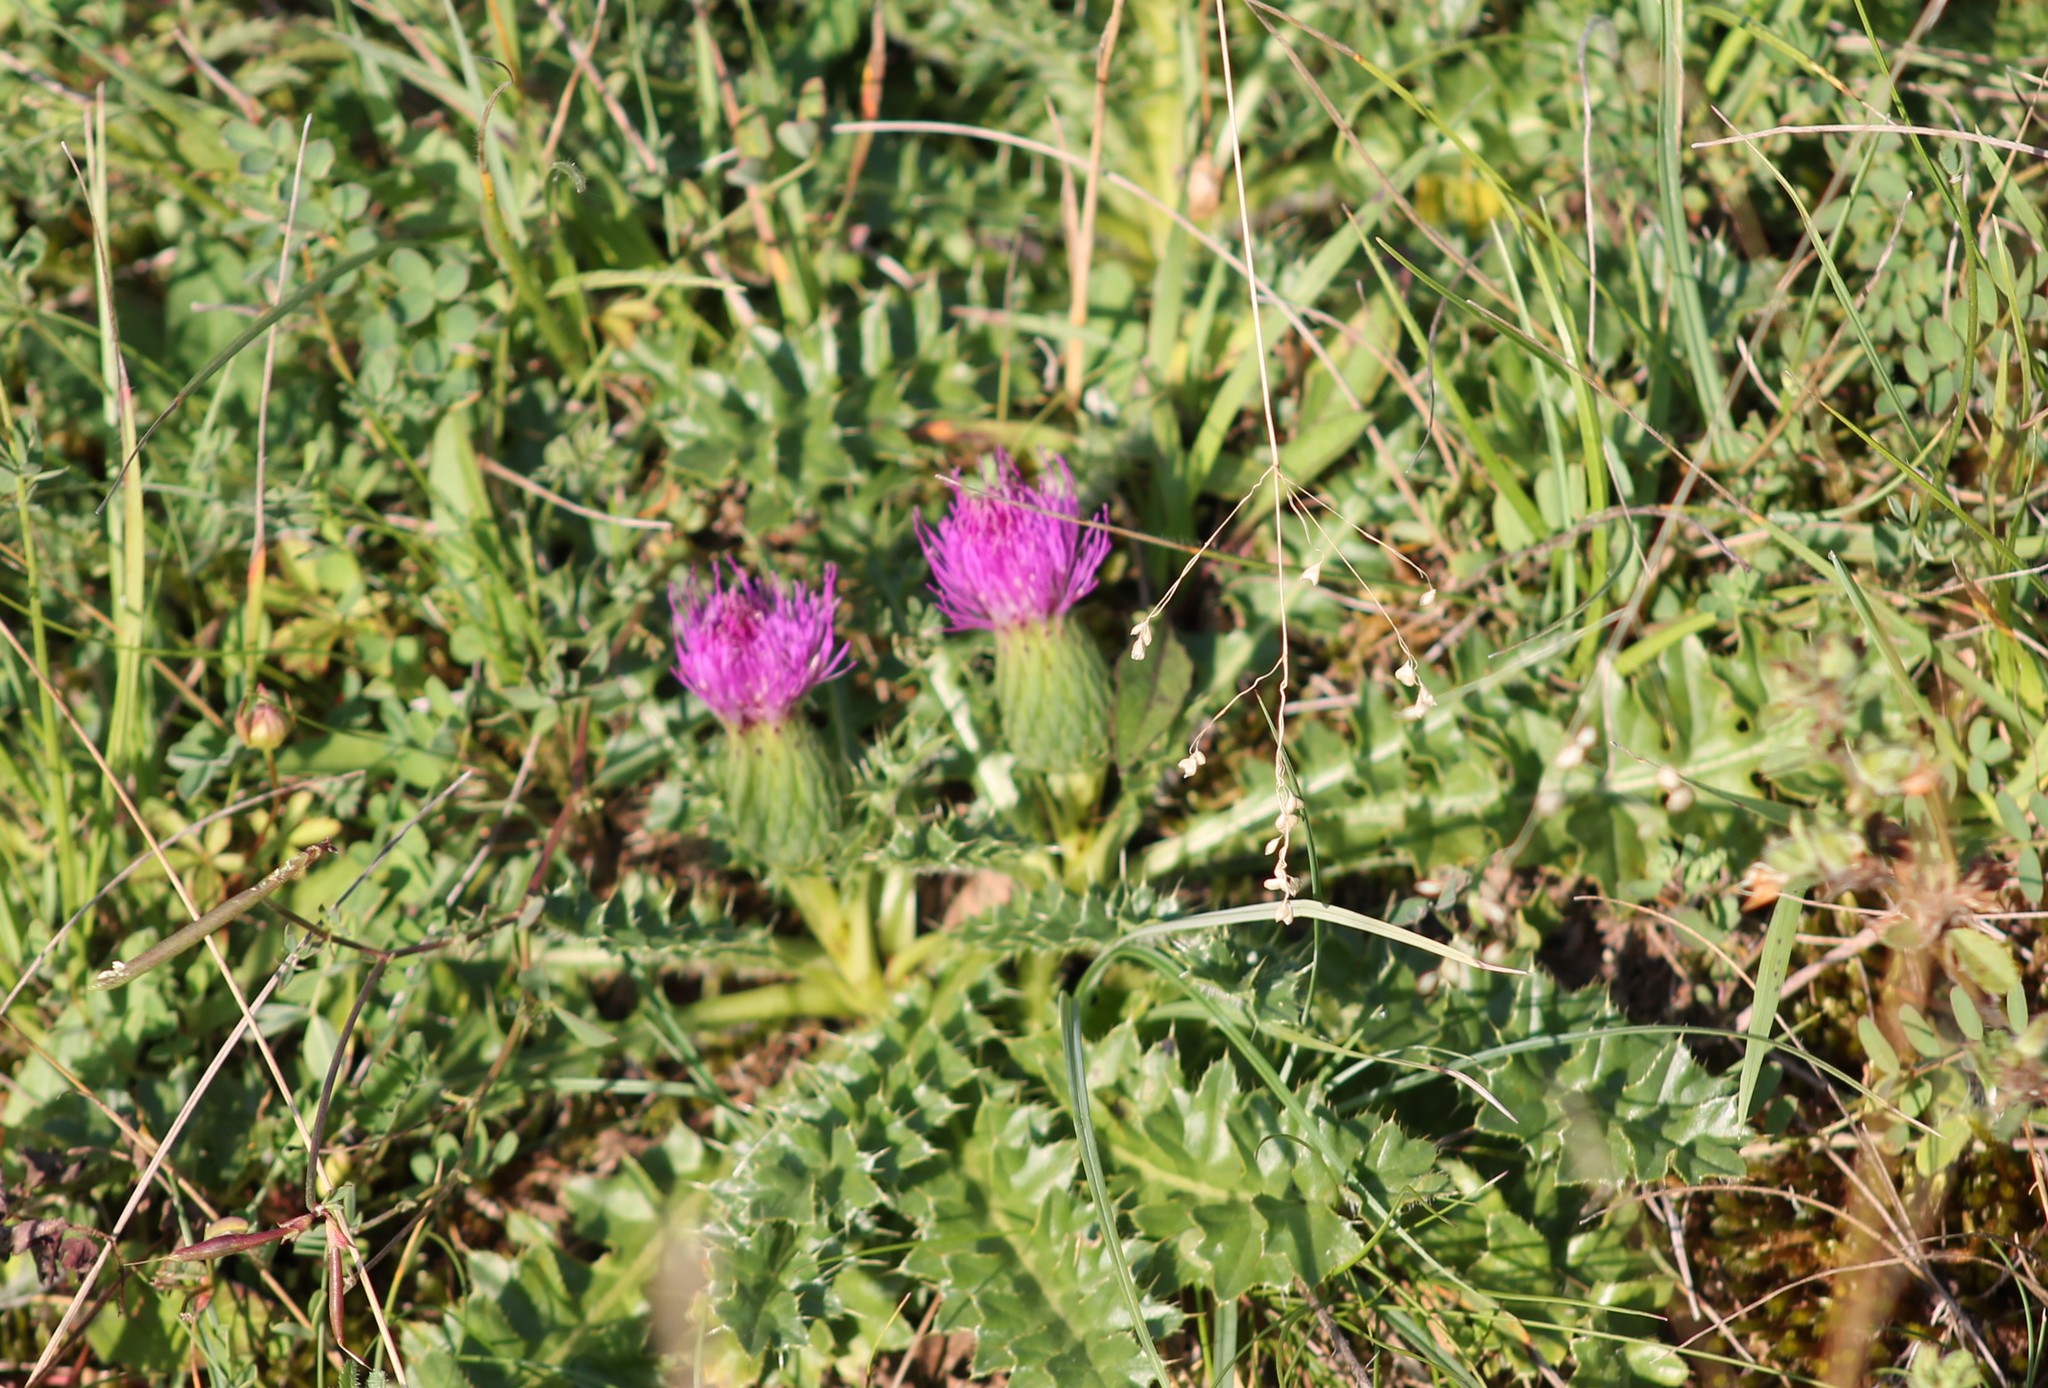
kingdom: Plantae
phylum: Tracheophyta
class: Magnoliopsida
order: Asterales
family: Asteraceae
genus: Cirsium
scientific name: Cirsium acaulon
